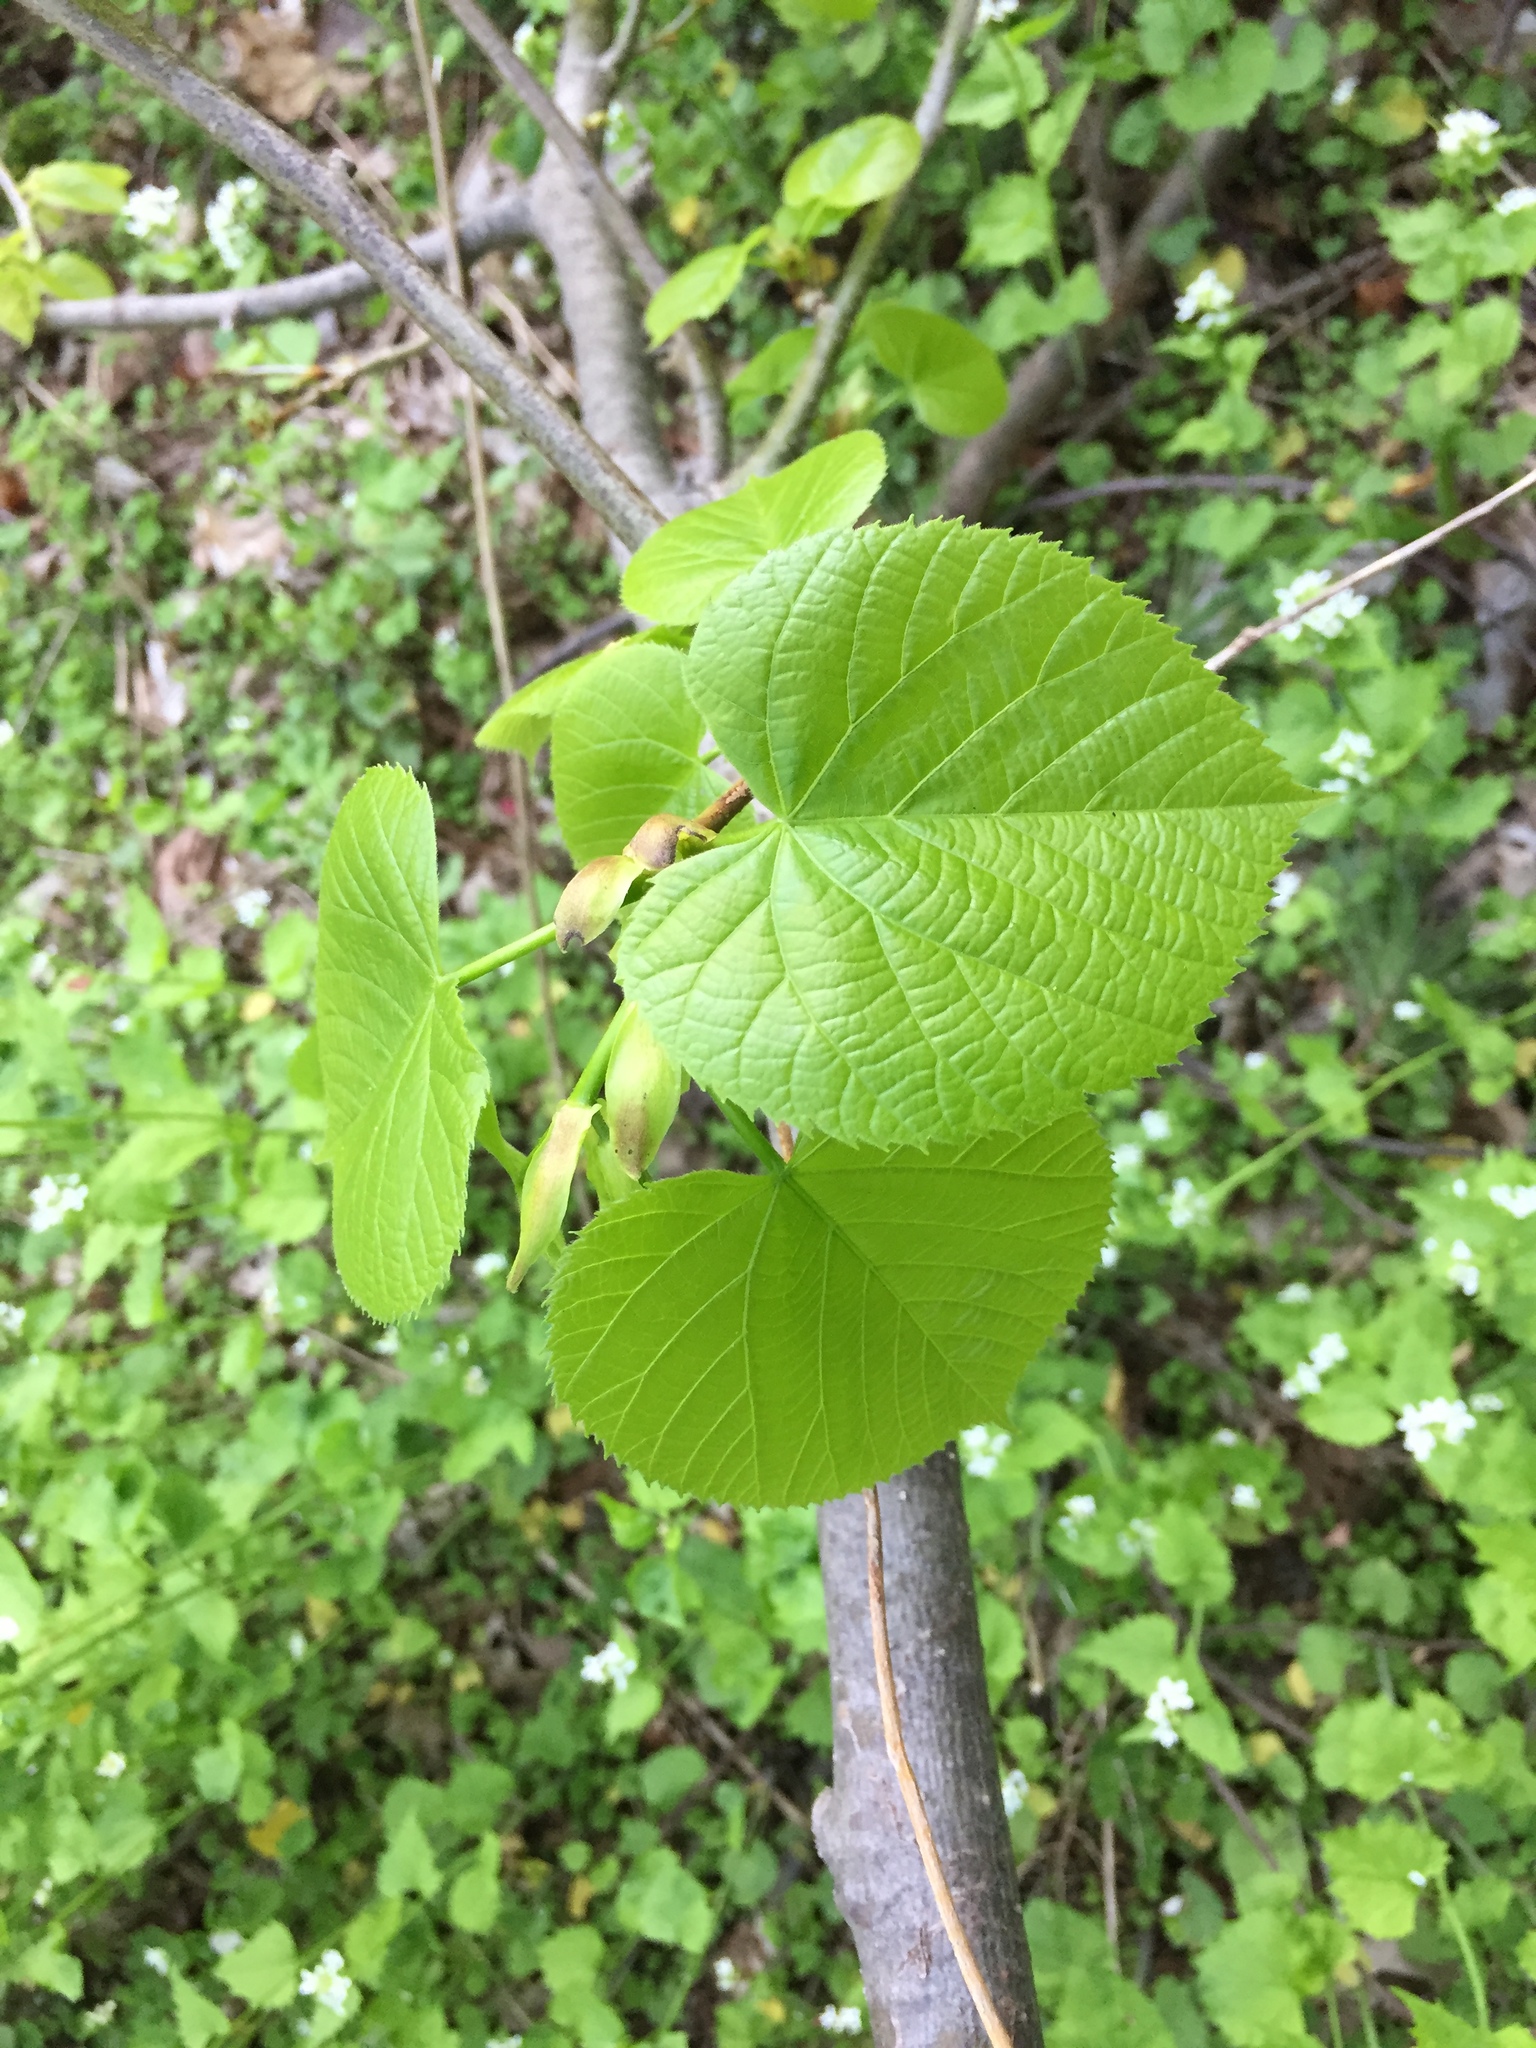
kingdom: Plantae
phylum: Tracheophyta
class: Magnoliopsida
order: Malvales
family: Malvaceae
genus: Tilia
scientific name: Tilia americana
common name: Basswood
